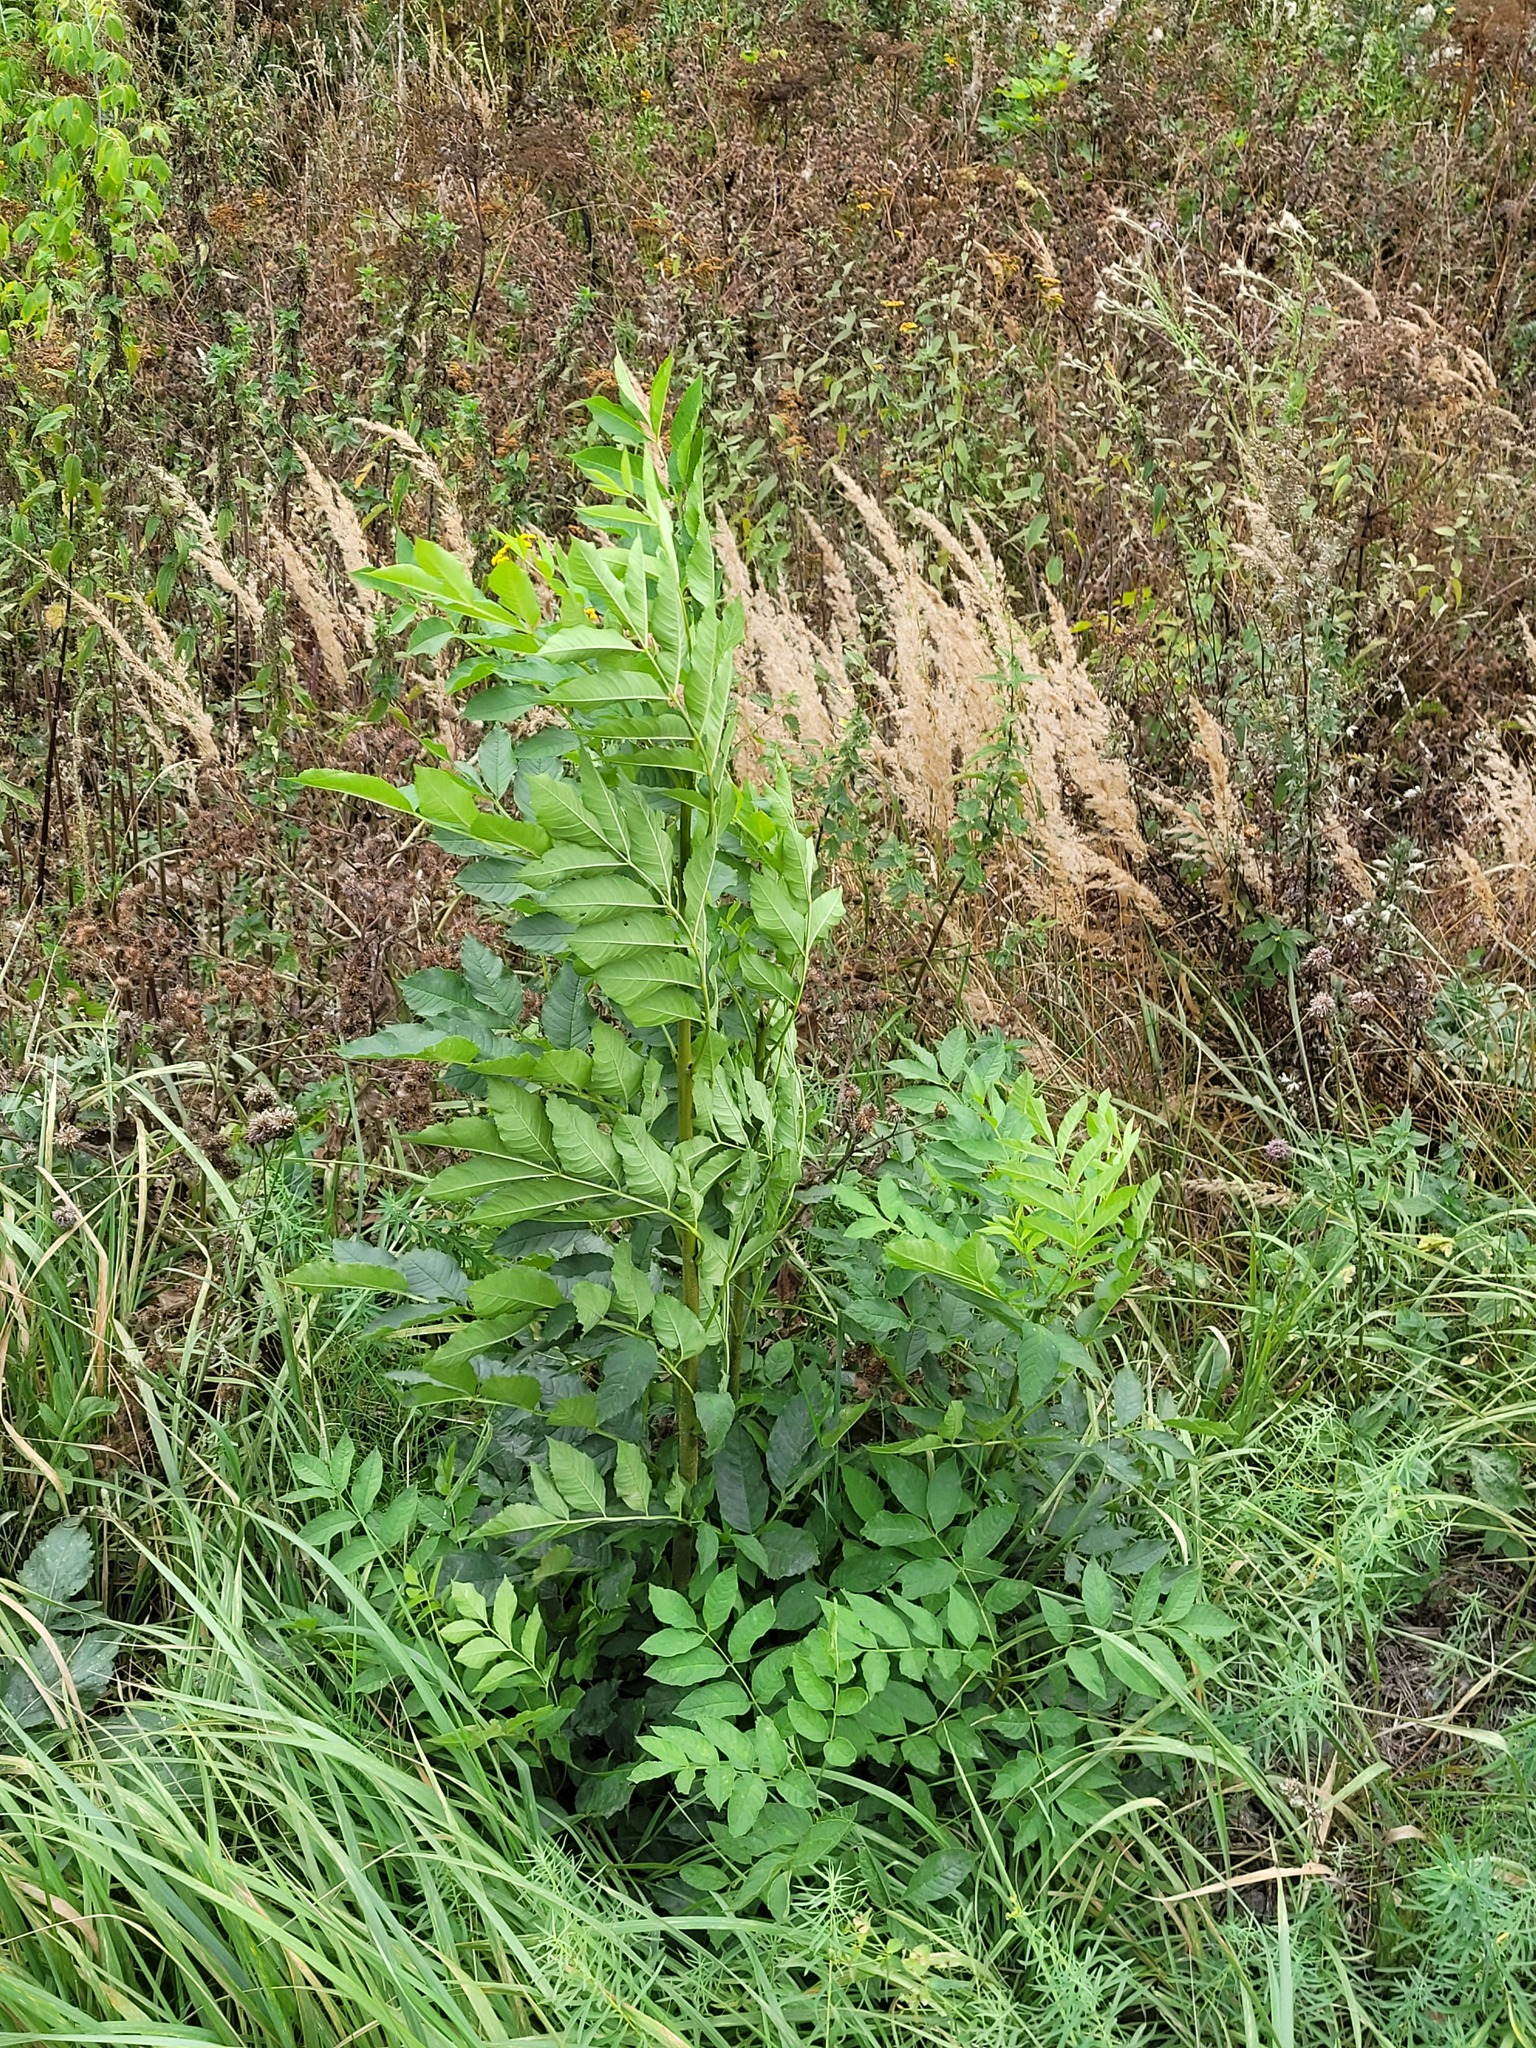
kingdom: Plantae
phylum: Tracheophyta
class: Magnoliopsida
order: Lamiales
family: Oleaceae
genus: Fraxinus
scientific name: Fraxinus excelsior
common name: European ash
